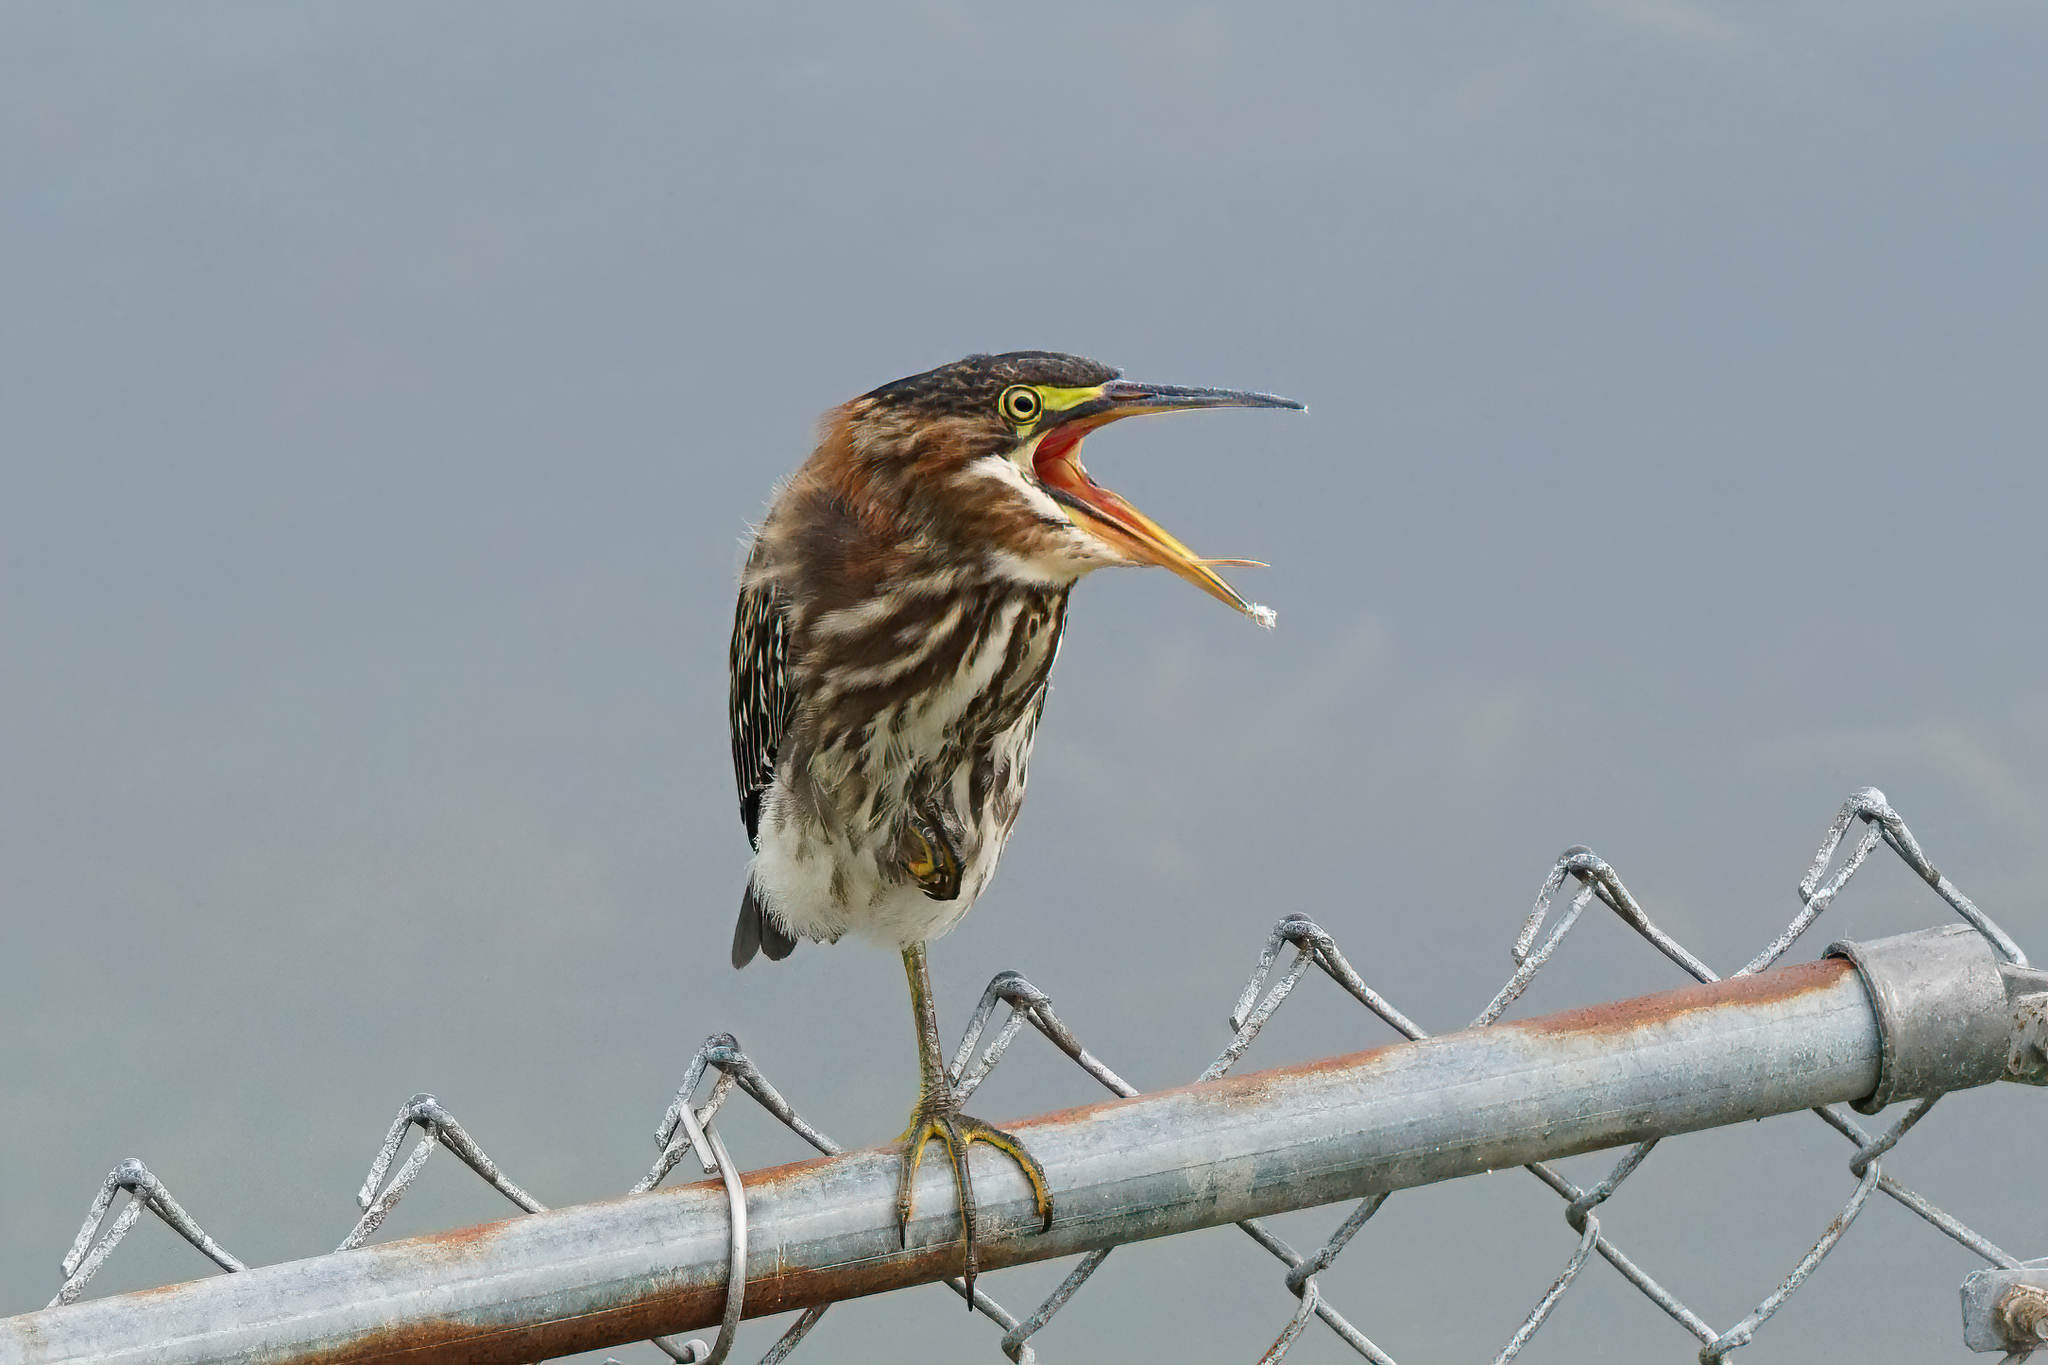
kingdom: Animalia
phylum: Chordata
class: Aves
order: Pelecaniformes
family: Ardeidae
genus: Butorides
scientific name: Butorides virescens
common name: Green heron
